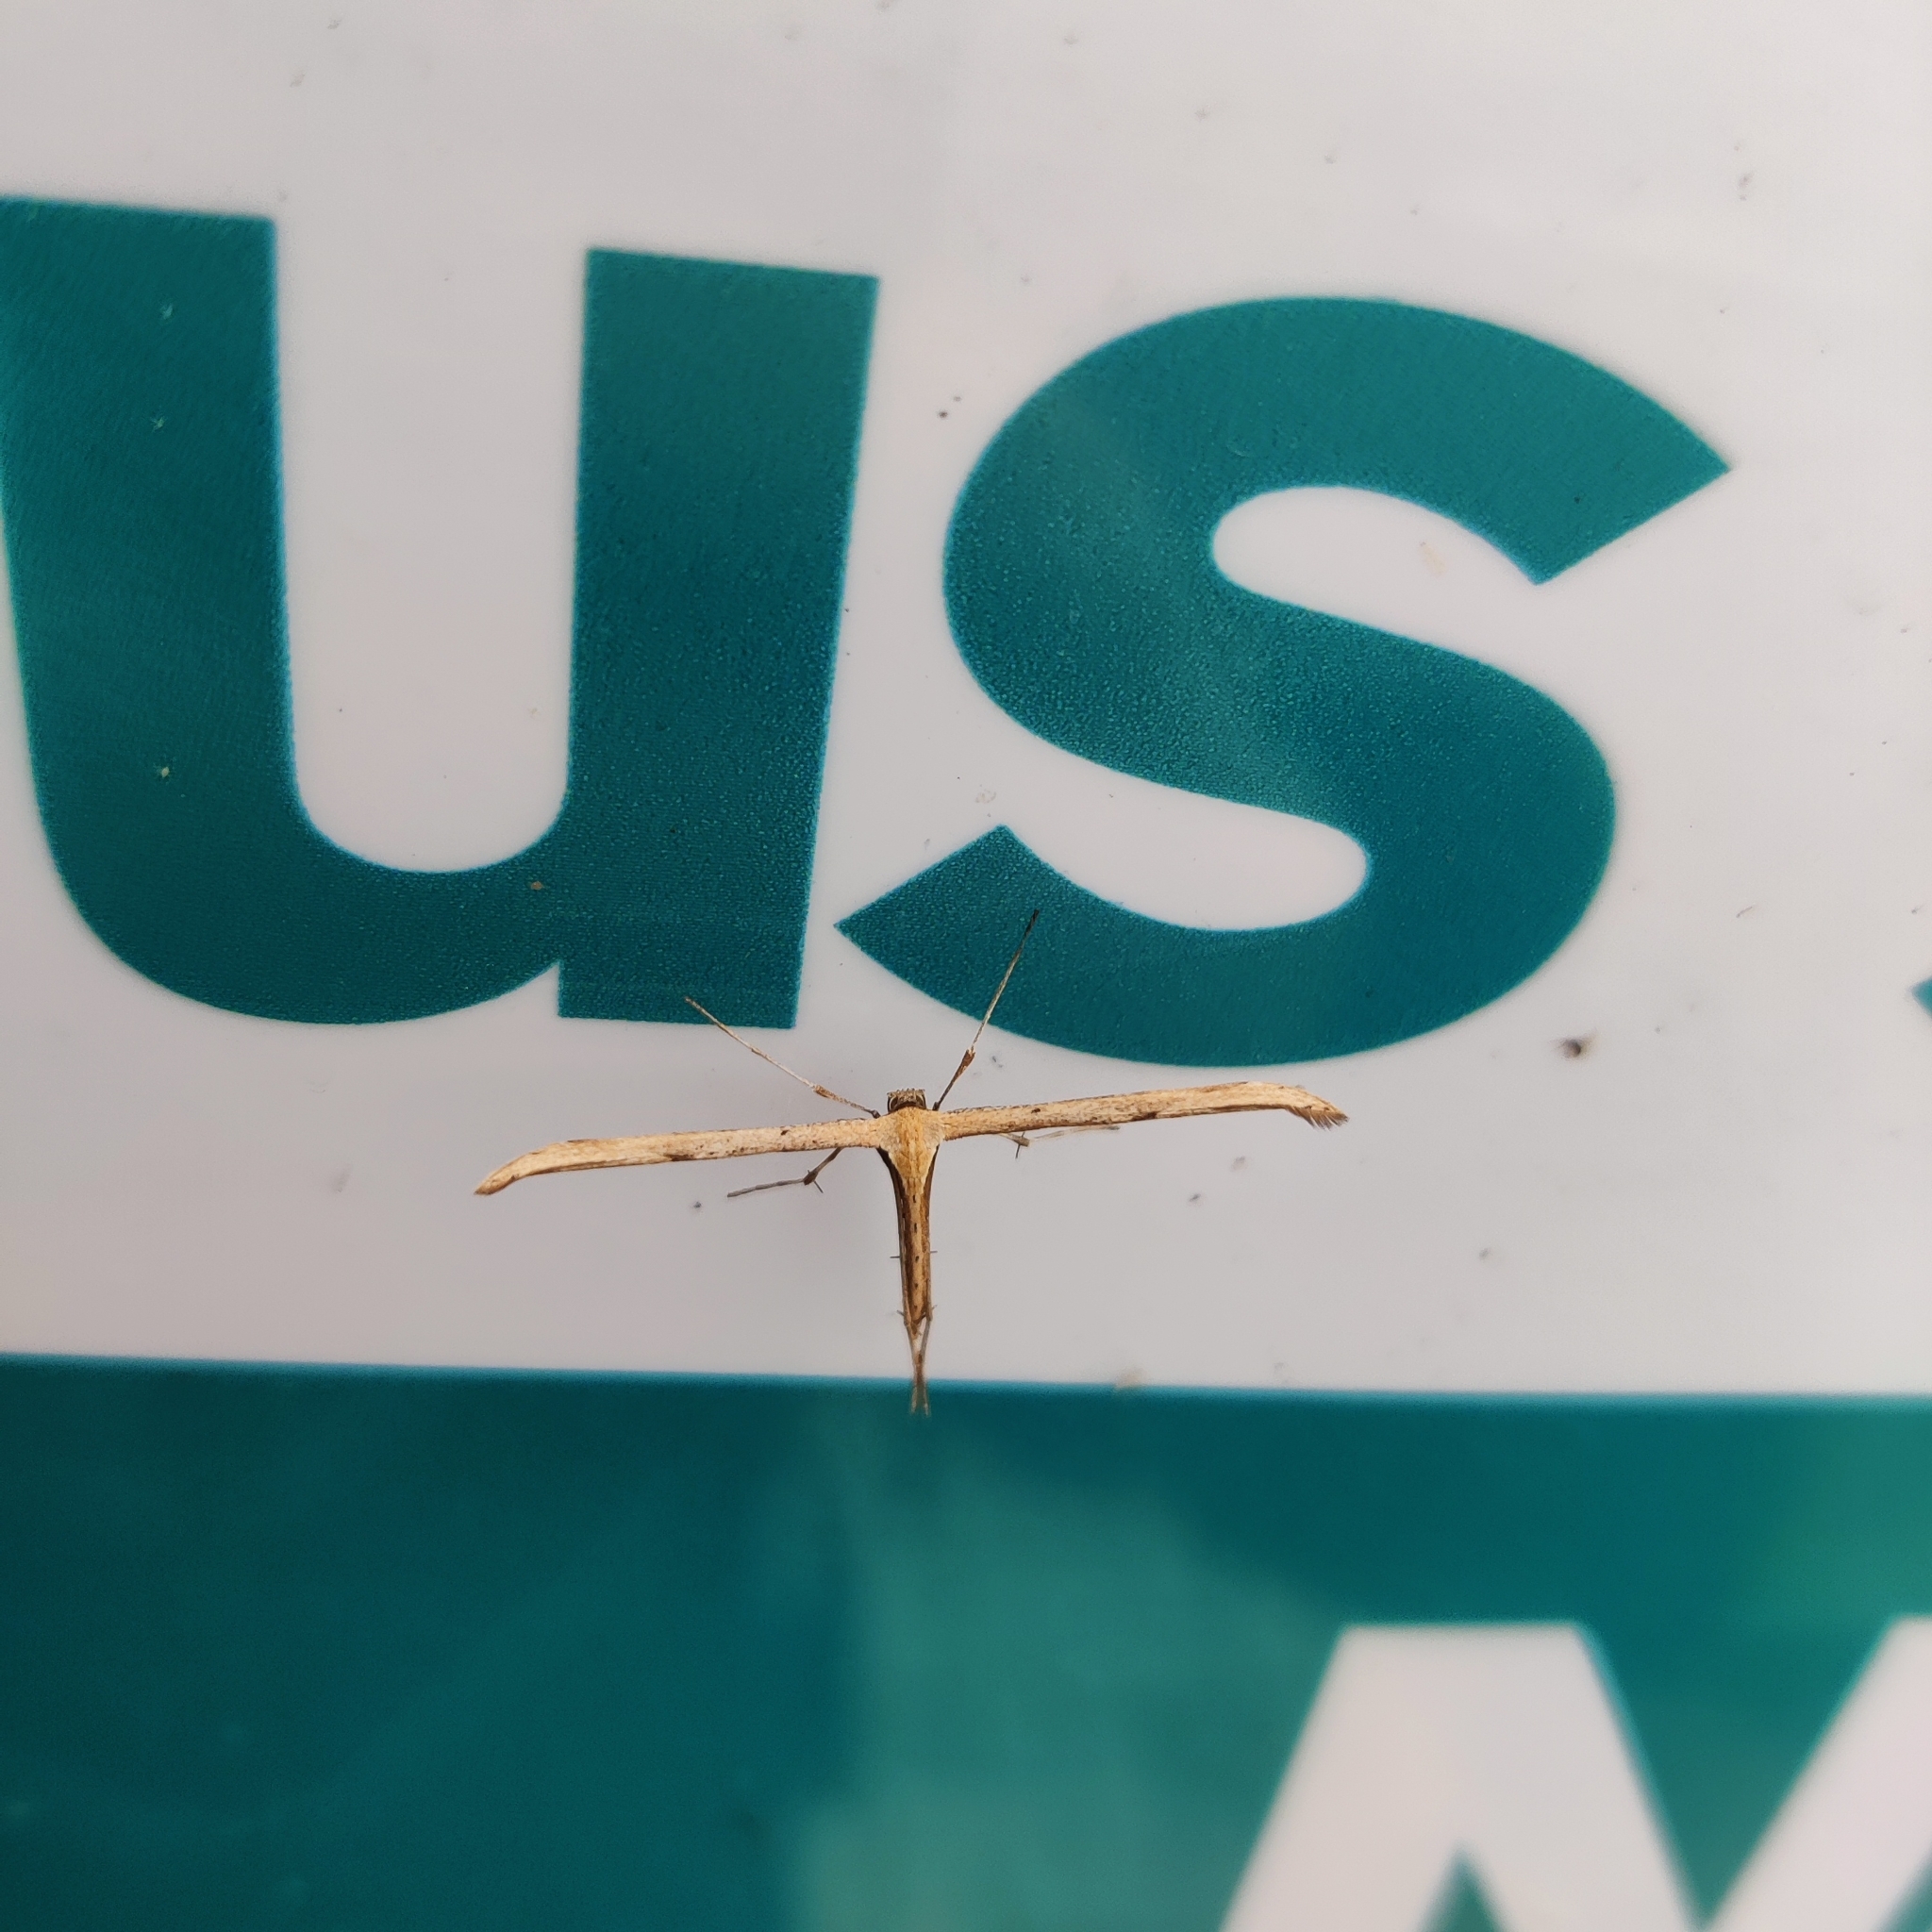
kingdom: Animalia
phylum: Arthropoda
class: Insecta
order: Lepidoptera
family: Pterophoridae
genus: Emmelina
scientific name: Emmelina monodactyla
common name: Common plume
